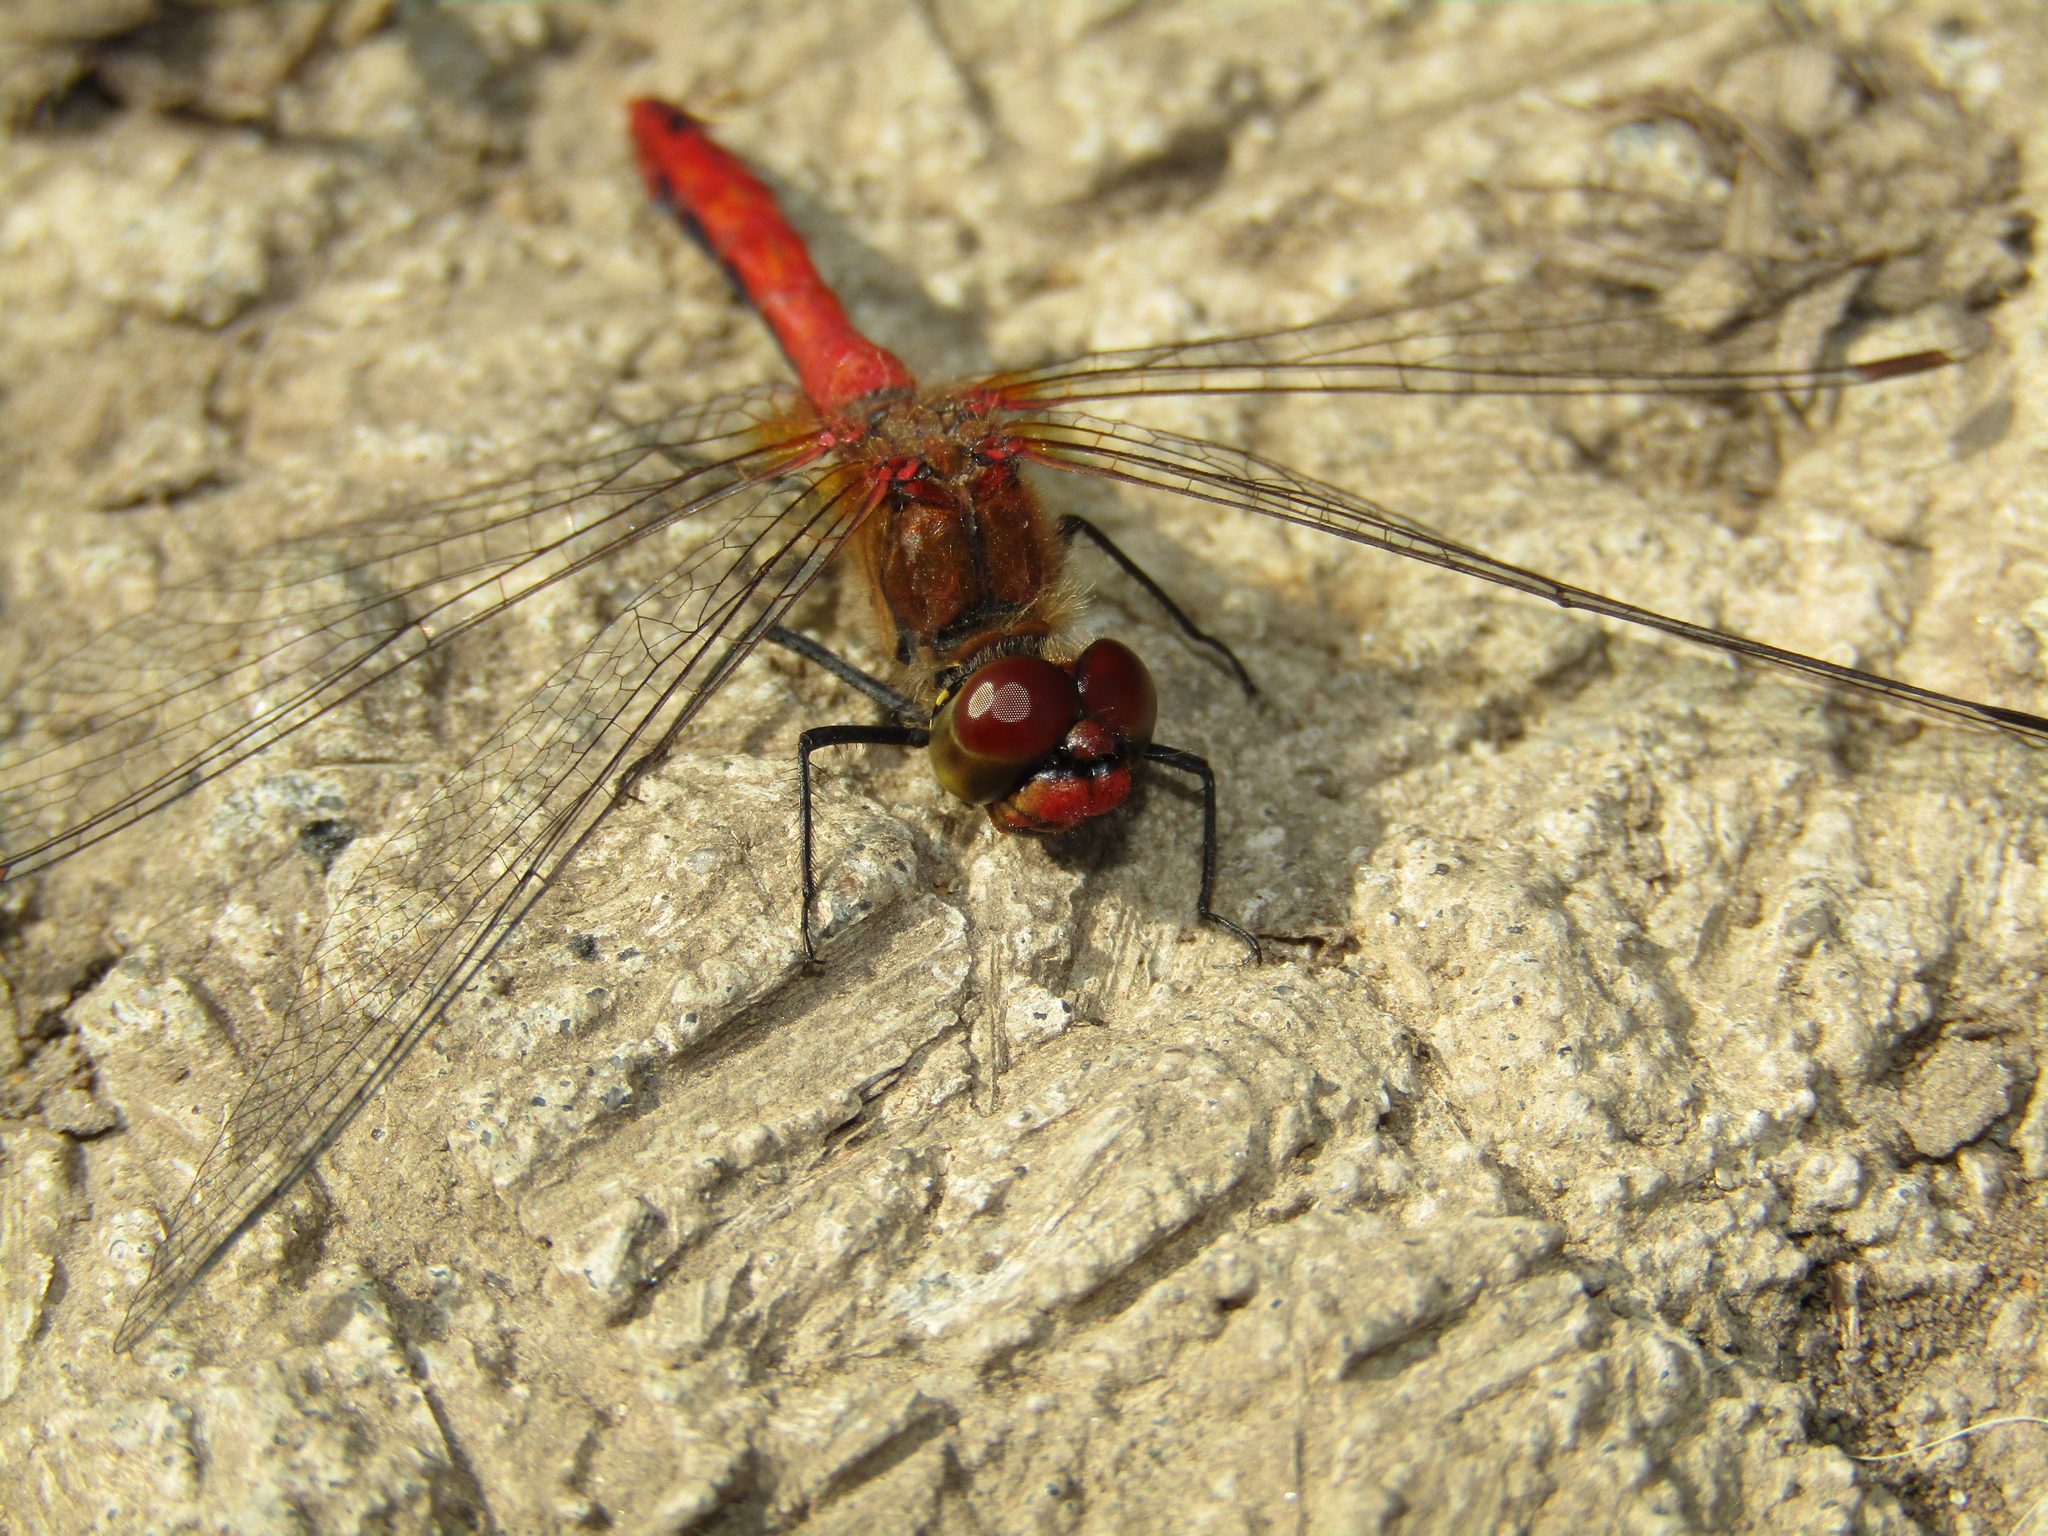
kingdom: Animalia
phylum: Arthropoda
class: Insecta
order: Odonata
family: Libellulidae
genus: Sympetrum
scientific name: Sympetrum sanguineum
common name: Ruddy darter
